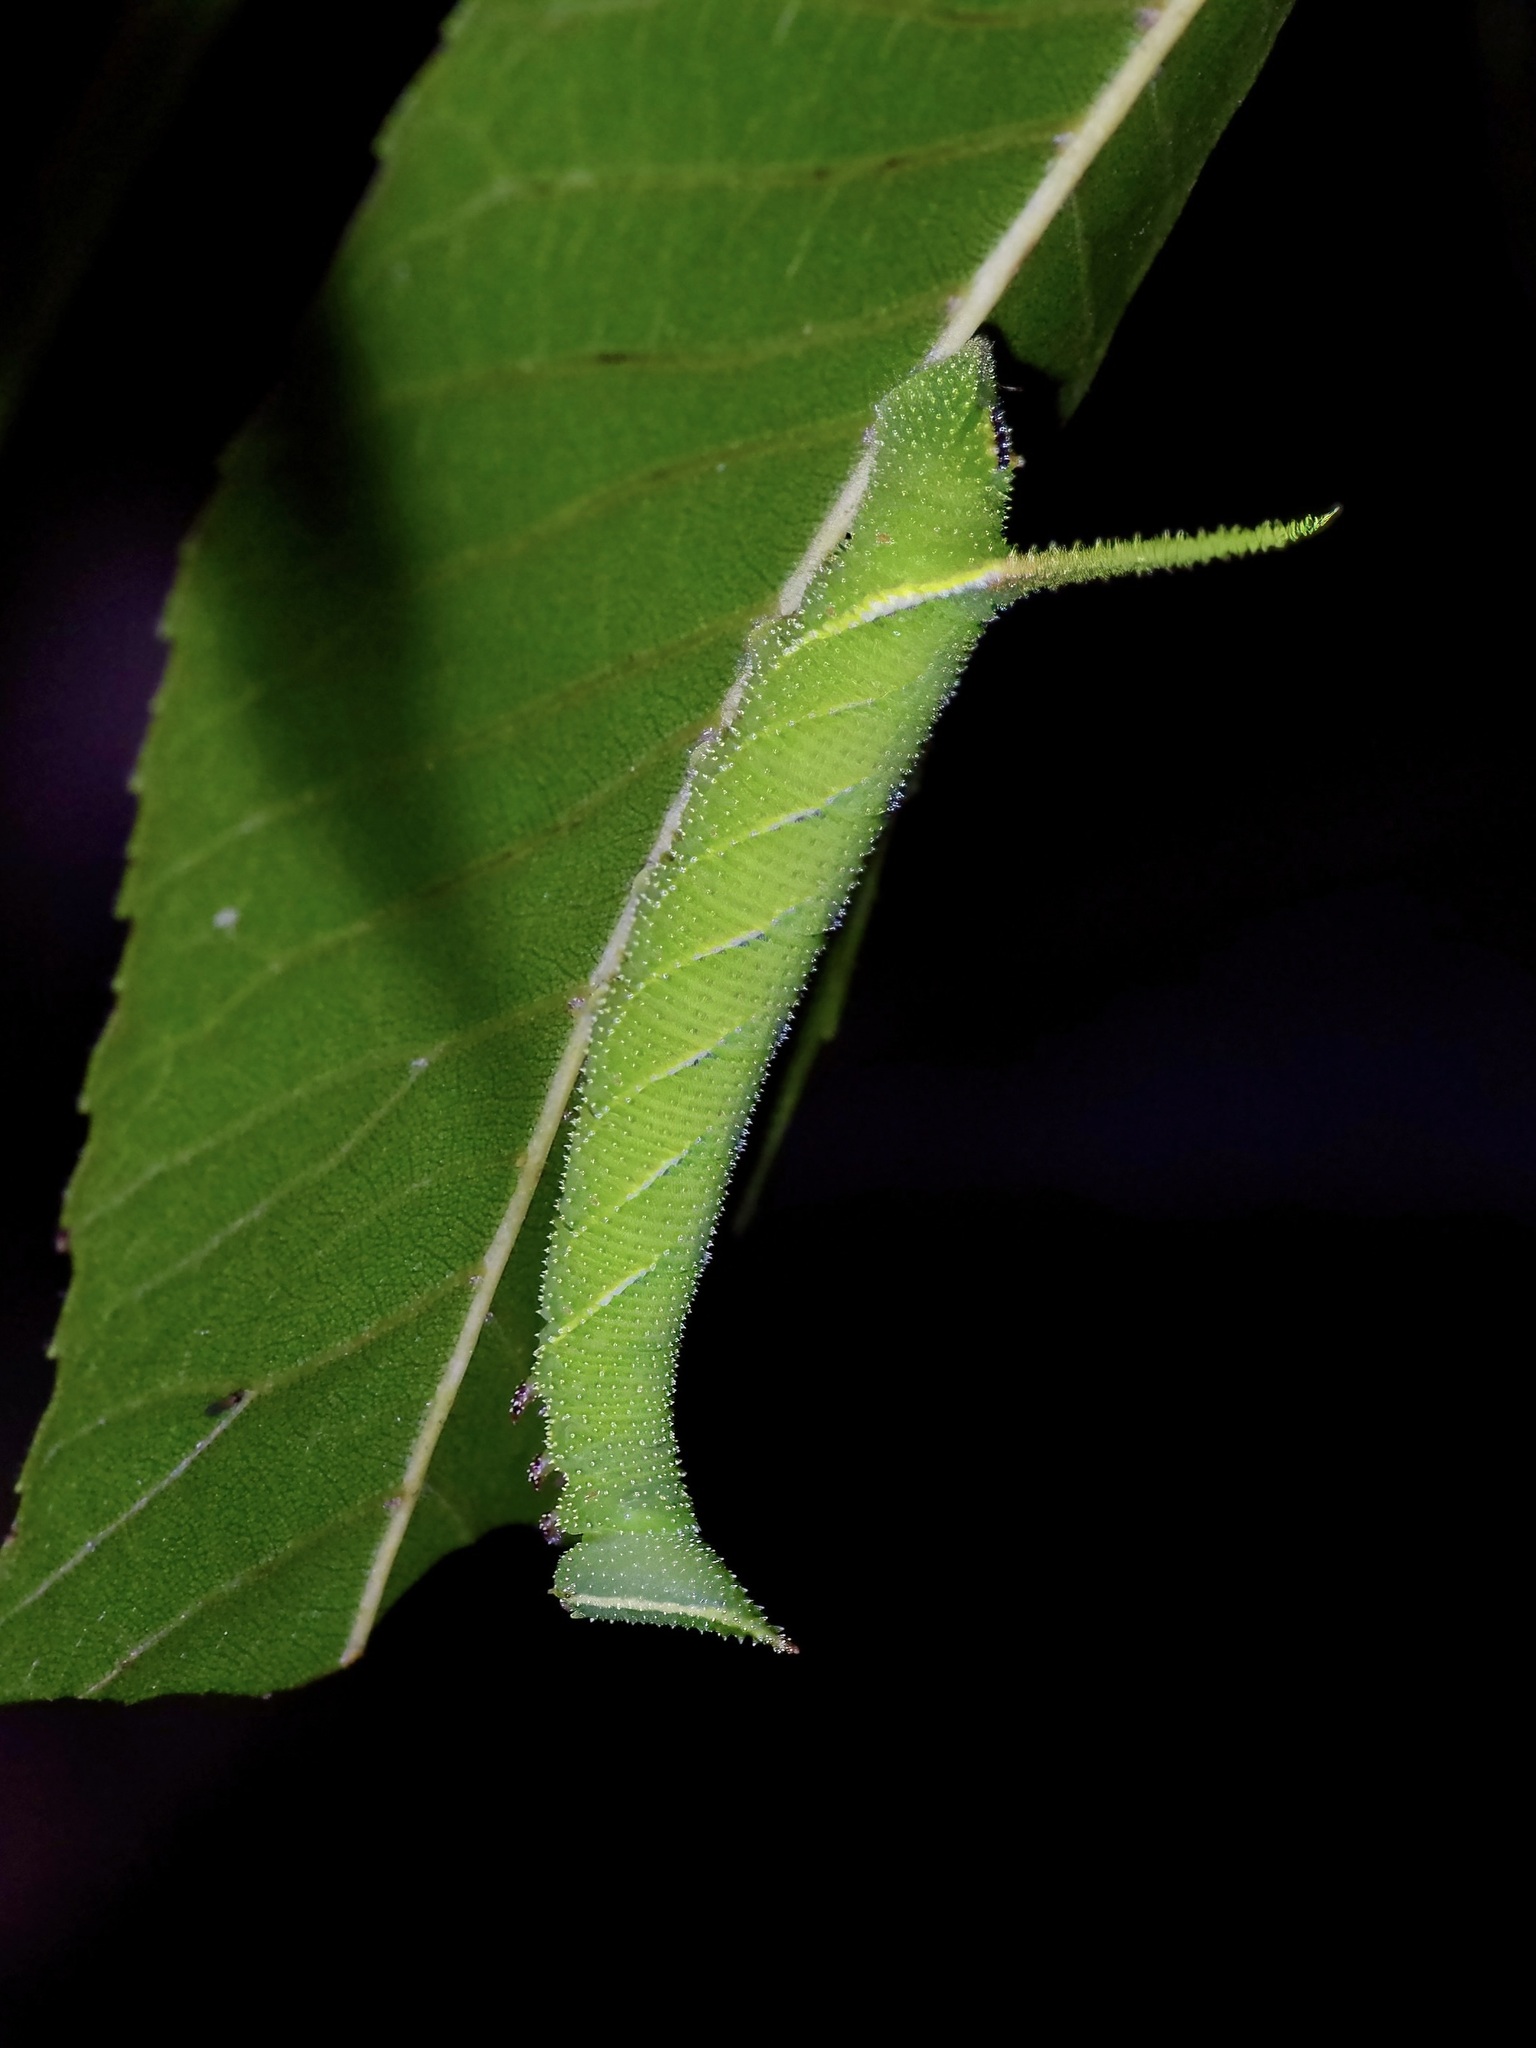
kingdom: Animalia
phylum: Arthropoda
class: Insecta
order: Lepidoptera
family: Sphingidae
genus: Amorpha
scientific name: Amorpha juglandis
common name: Walnut sphinx
